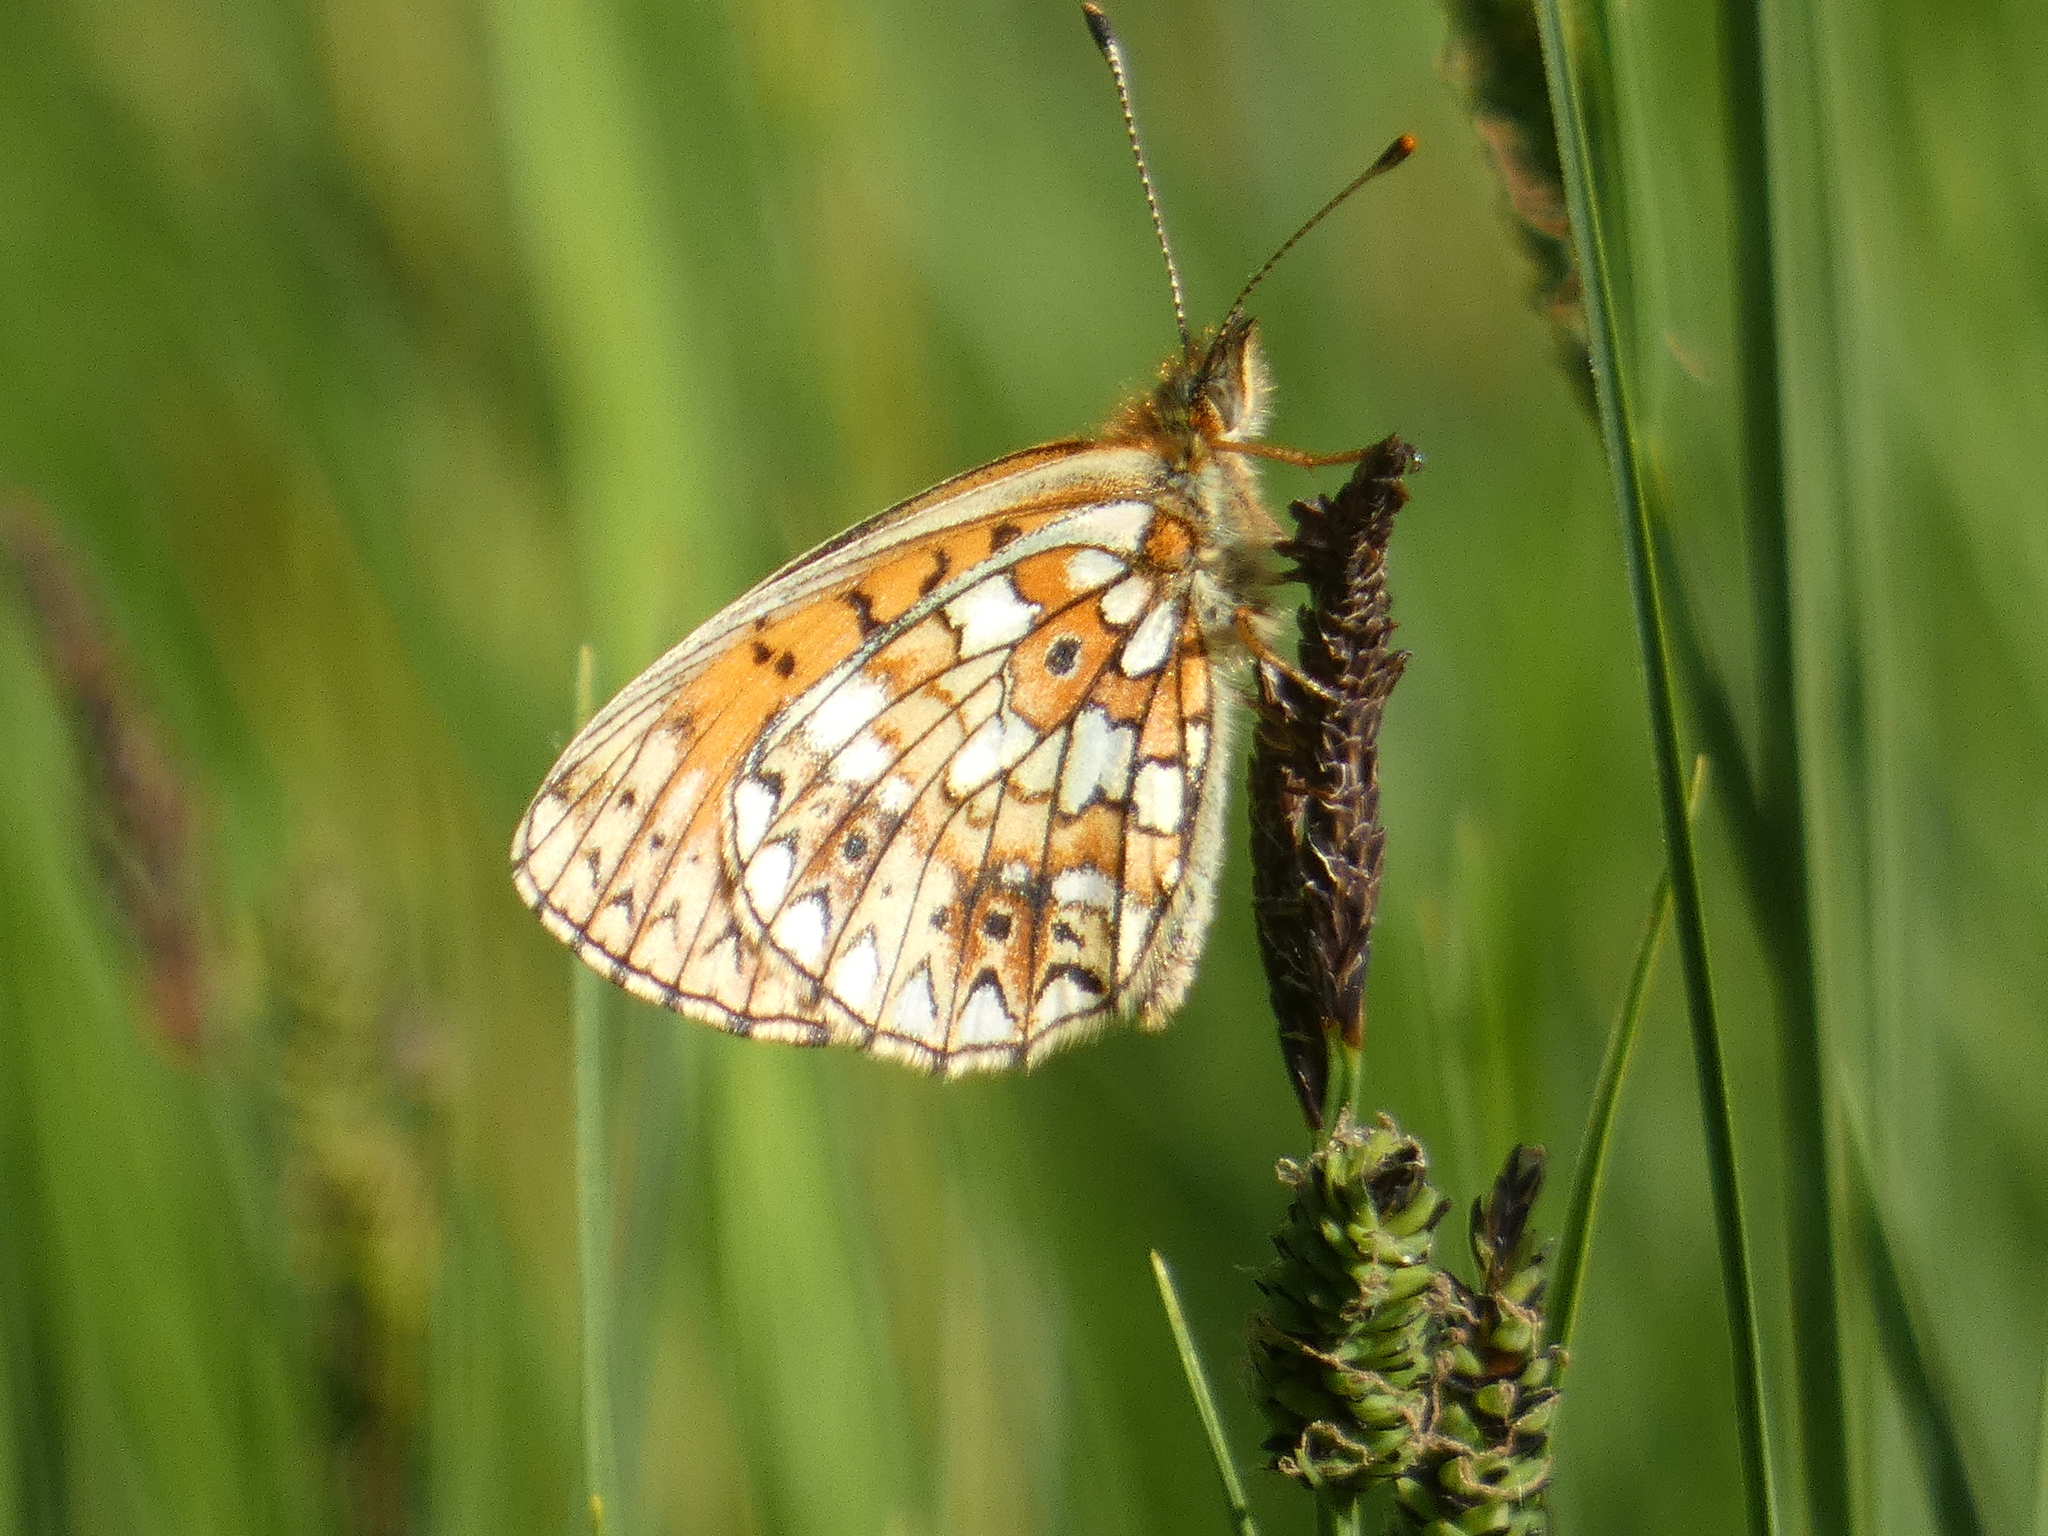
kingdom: Animalia
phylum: Arthropoda
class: Insecta
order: Lepidoptera
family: Nymphalidae
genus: Boloria
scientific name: Boloria selene
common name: Small pearl-bordered fritillary
